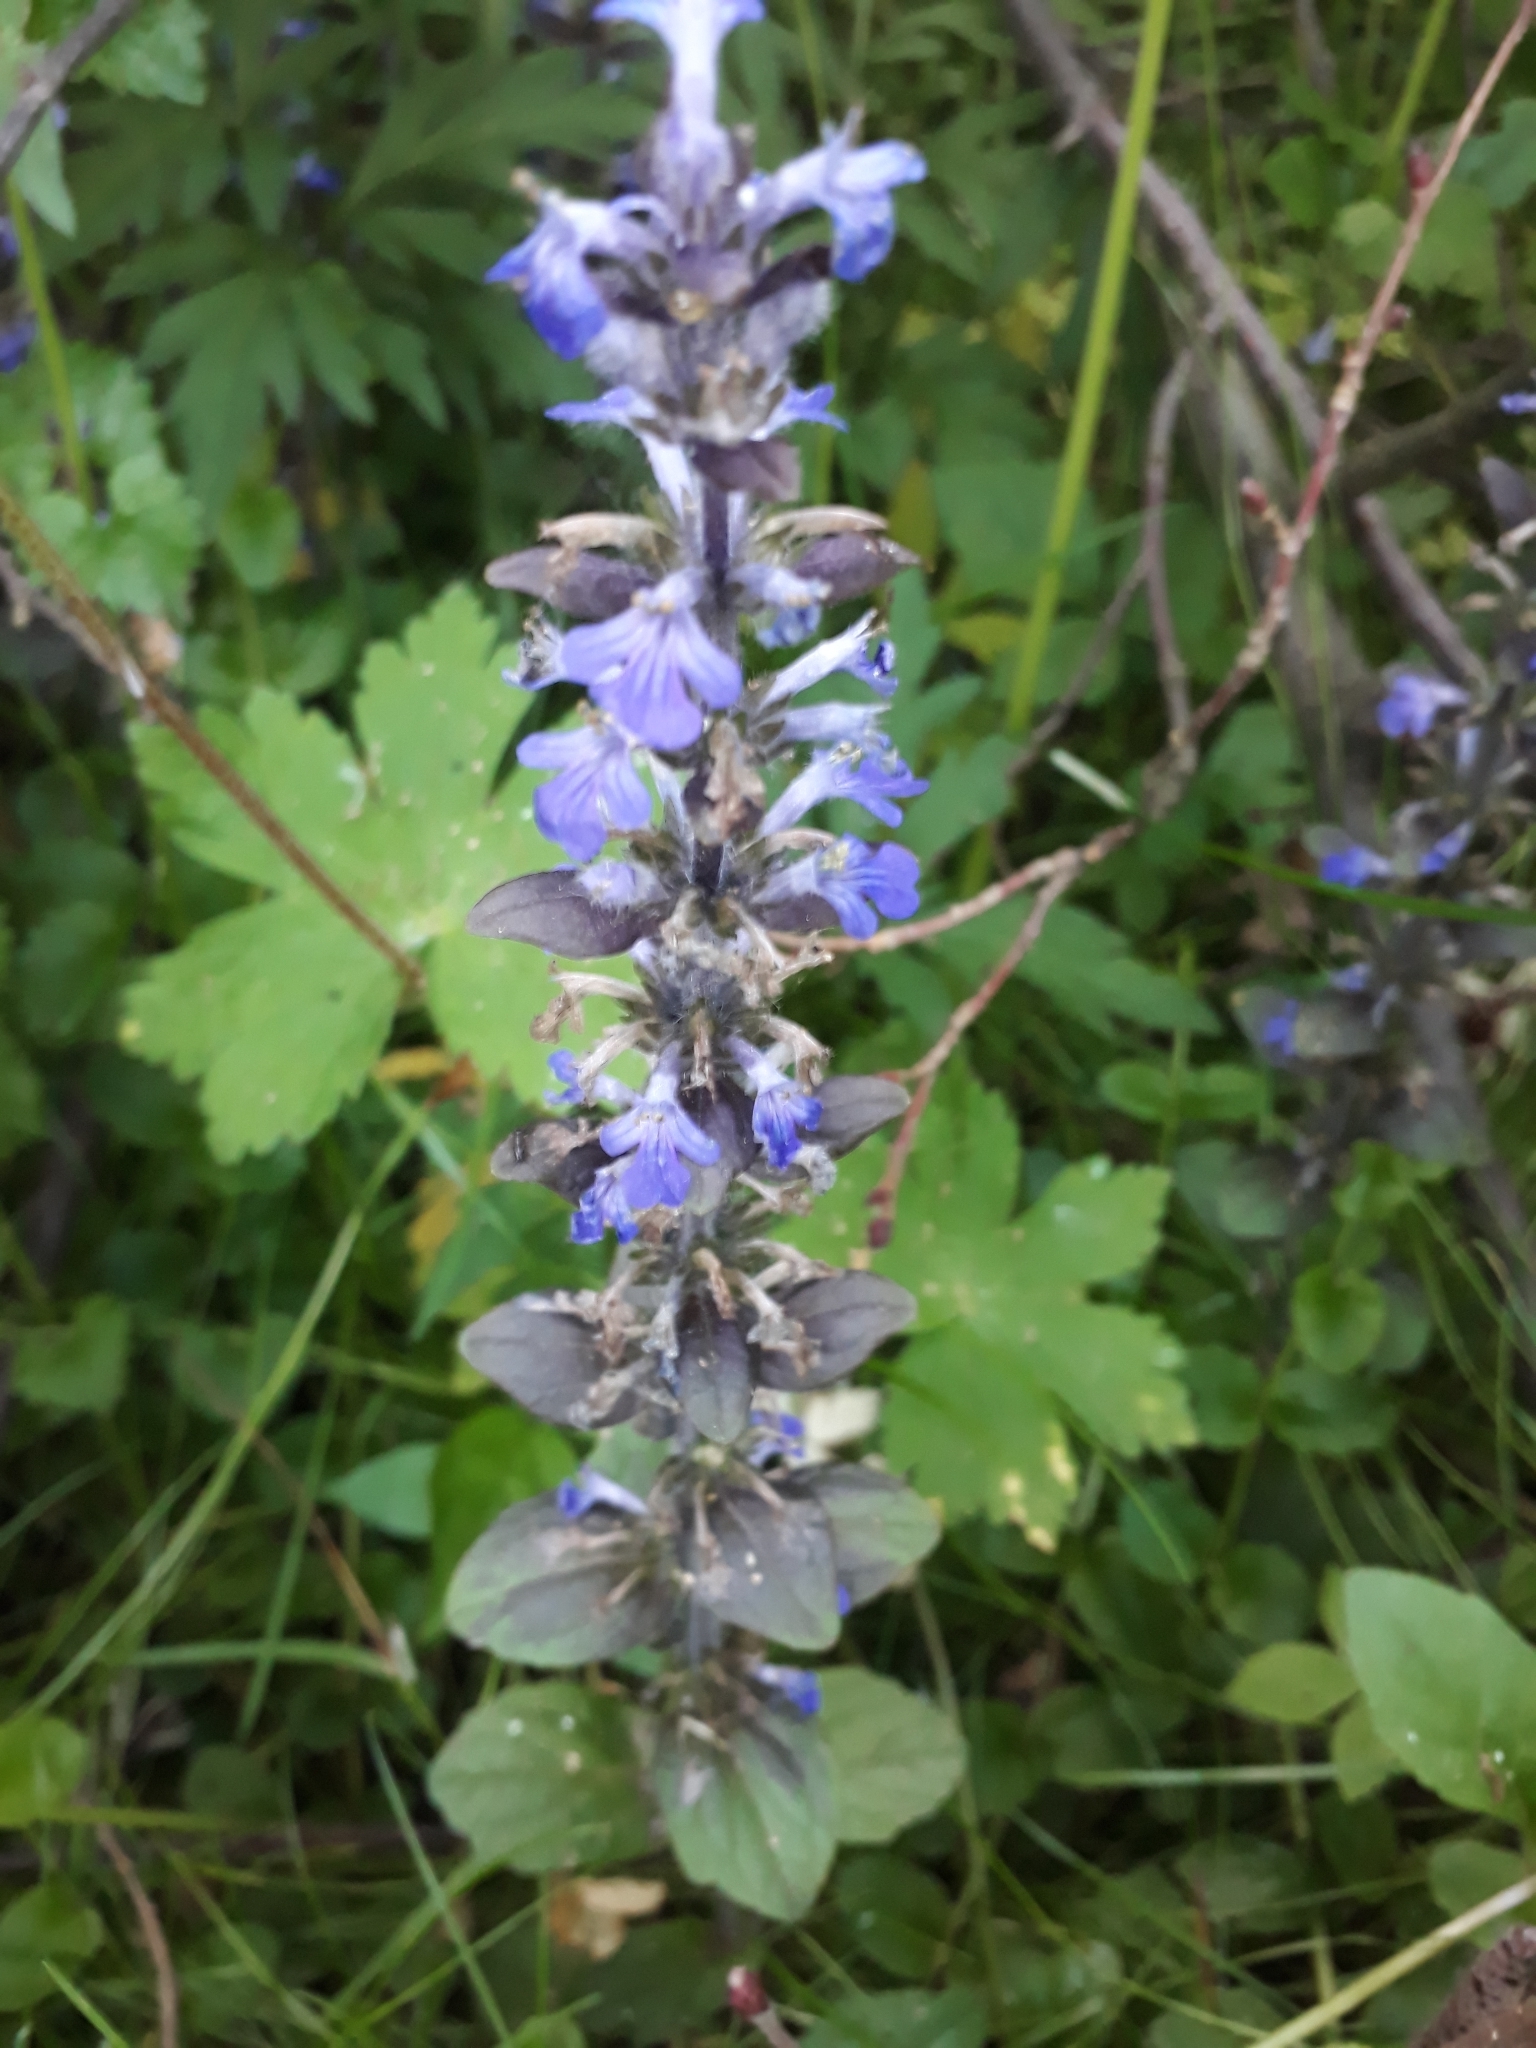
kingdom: Plantae
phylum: Tracheophyta
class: Magnoliopsida
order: Lamiales
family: Lamiaceae
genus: Ajuga
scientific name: Ajuga reptans
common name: Bugle
